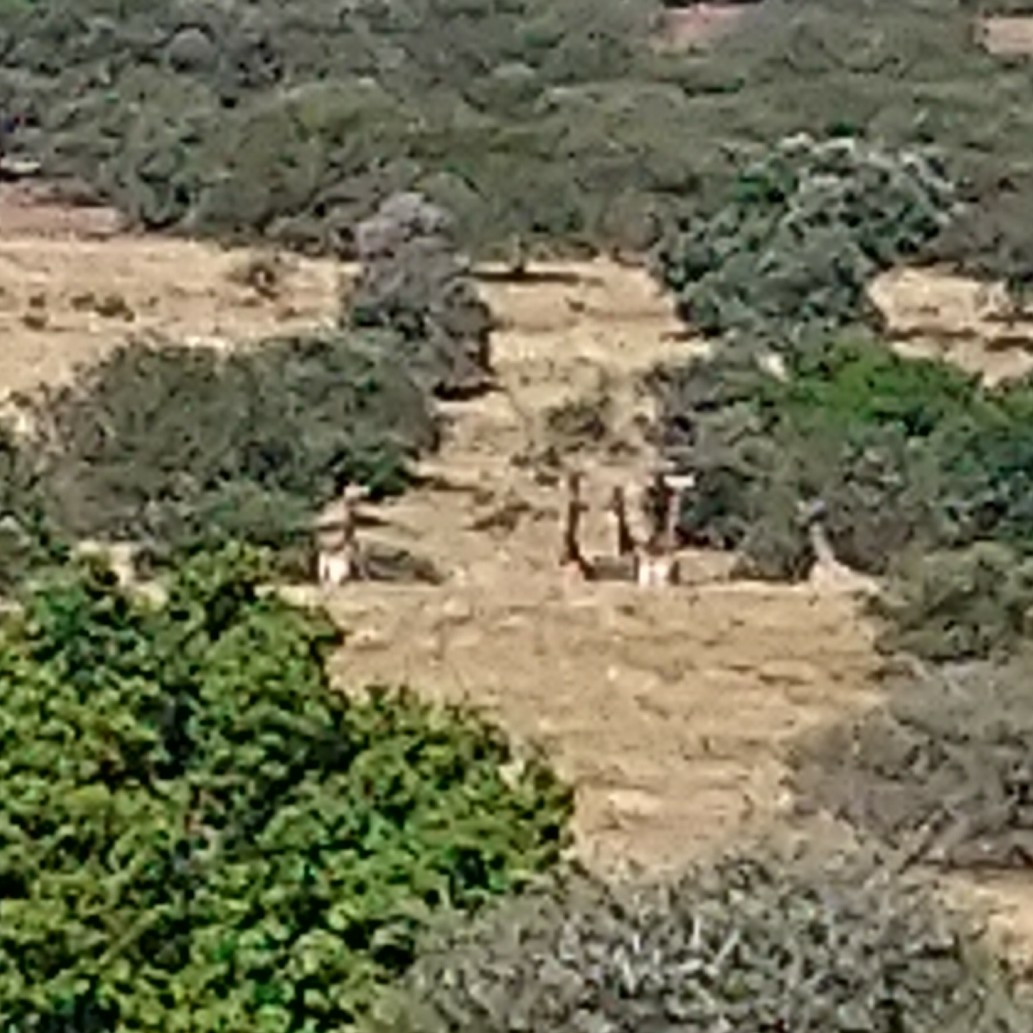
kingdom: Animalia
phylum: Chordata
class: Mammalia
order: Artiodactyla
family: Giraffidae
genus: Giraffa
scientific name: Giraffa giraffa
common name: Southern giraffe
